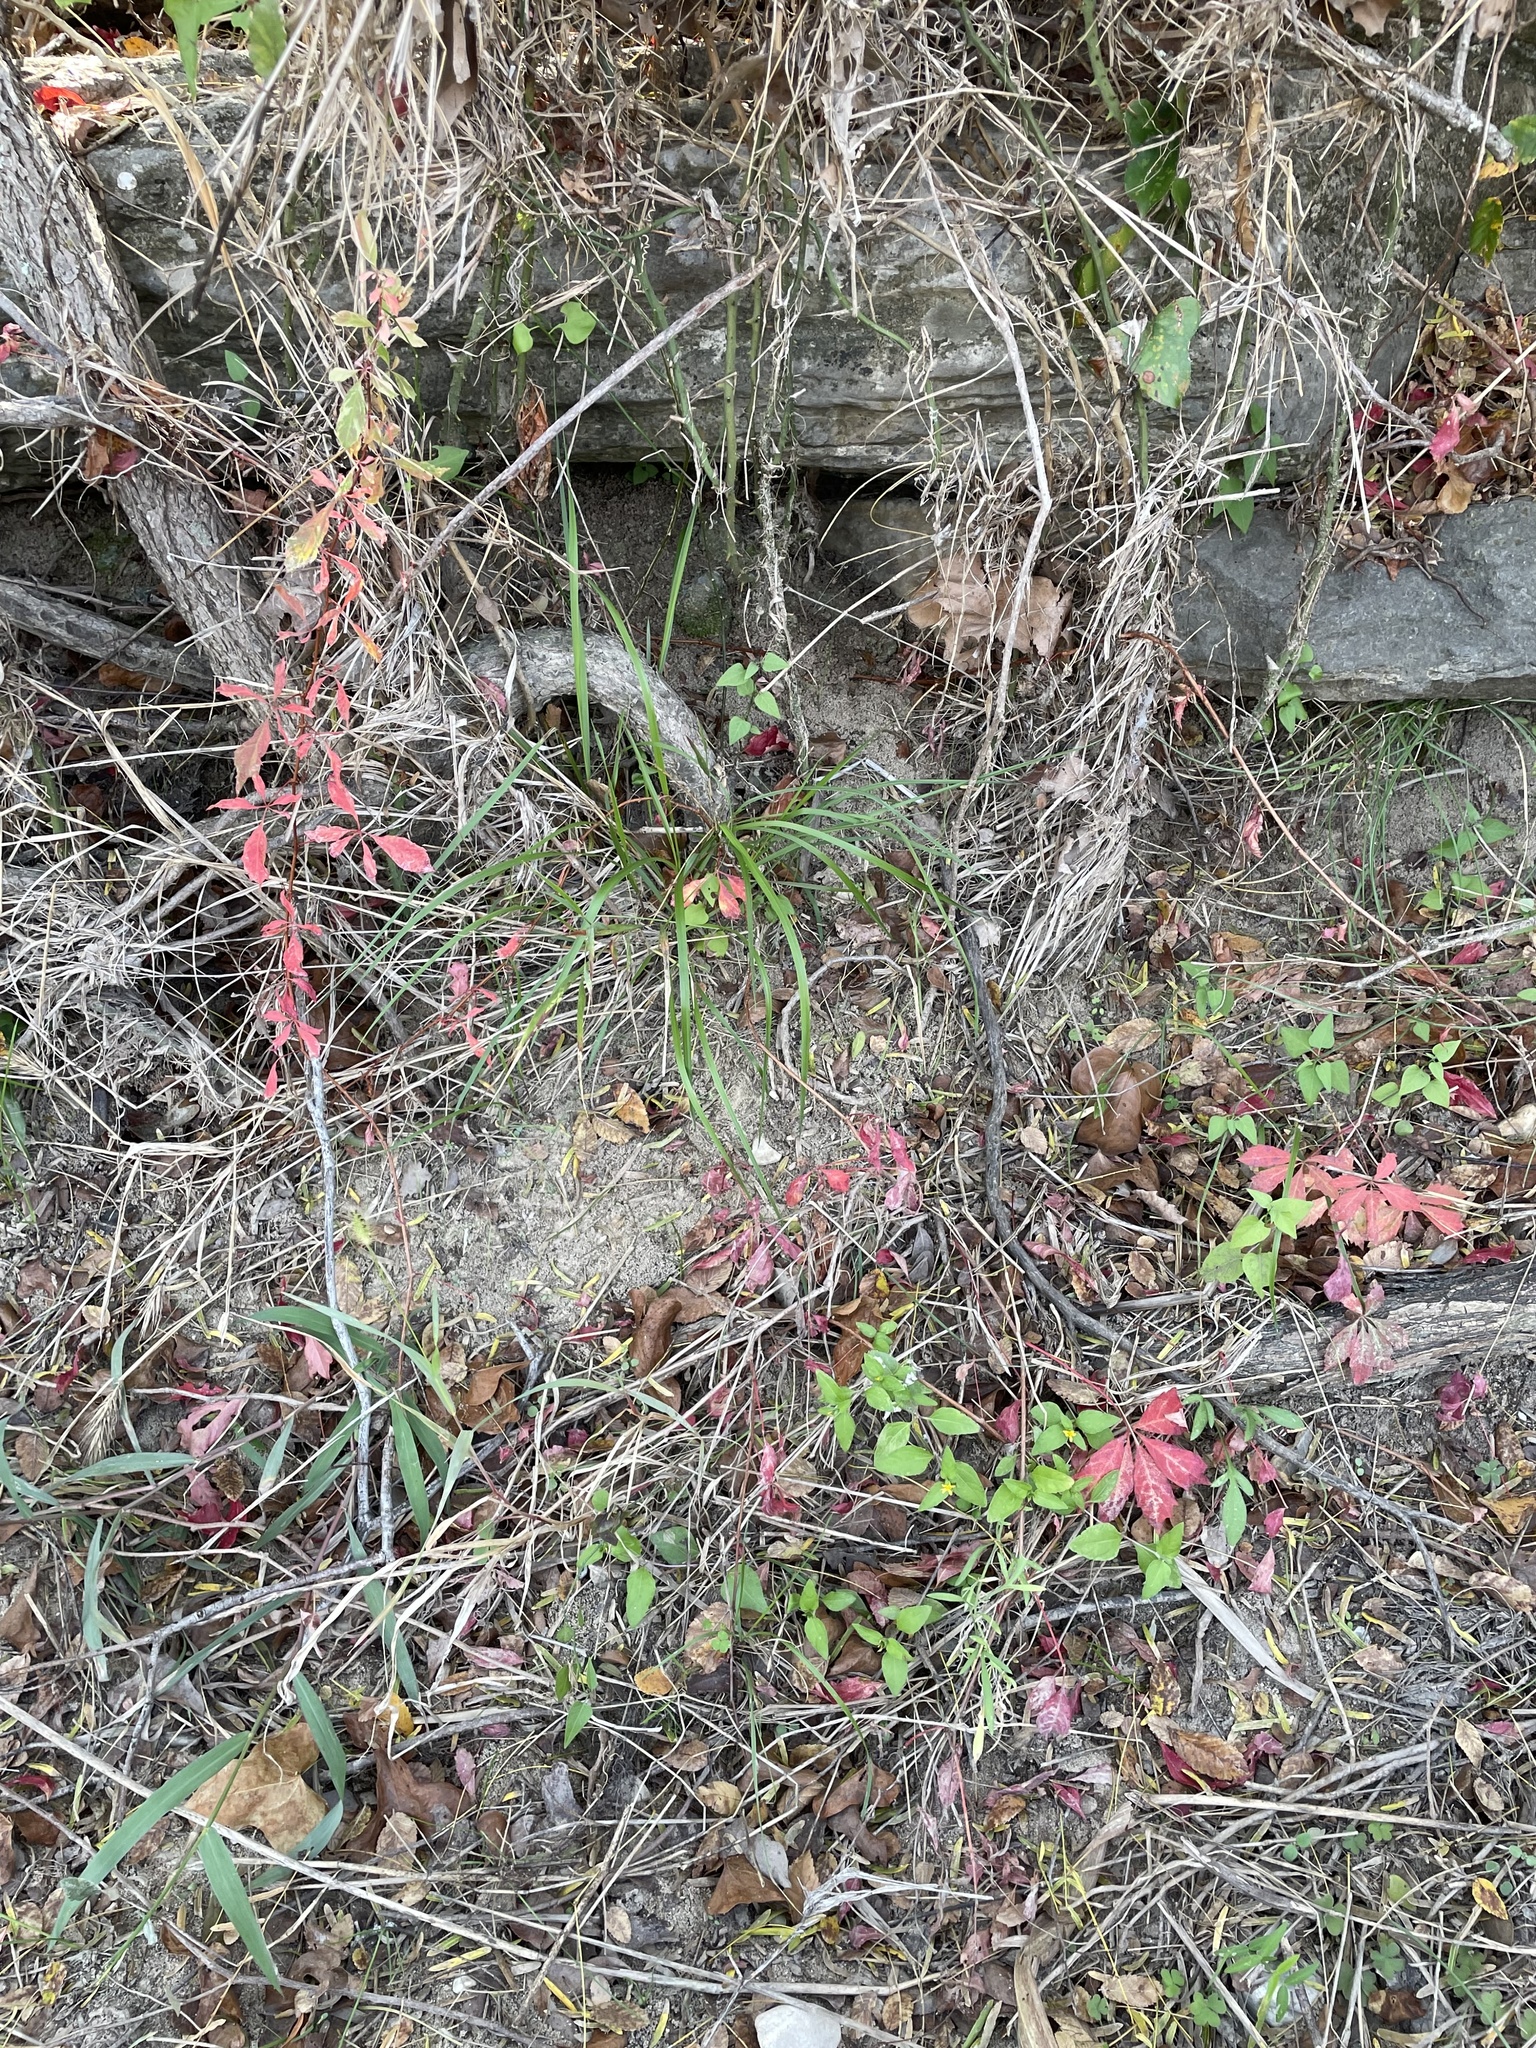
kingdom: Plantae
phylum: Tracheophyta
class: Magnoliopsida
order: Vitales
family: Vitaceae
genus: Parthenocissus
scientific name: Parthenocissus quinquefolia
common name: Virginia-creeper
